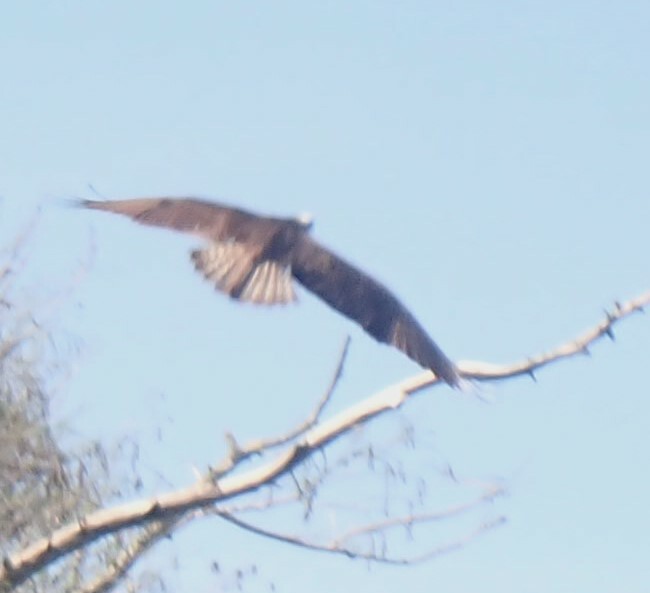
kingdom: Animalia
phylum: Chordata
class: Aves
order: Accipitriformes
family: Pandionidae
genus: Pandion
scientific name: Pandion haliaetus
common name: Osprey
